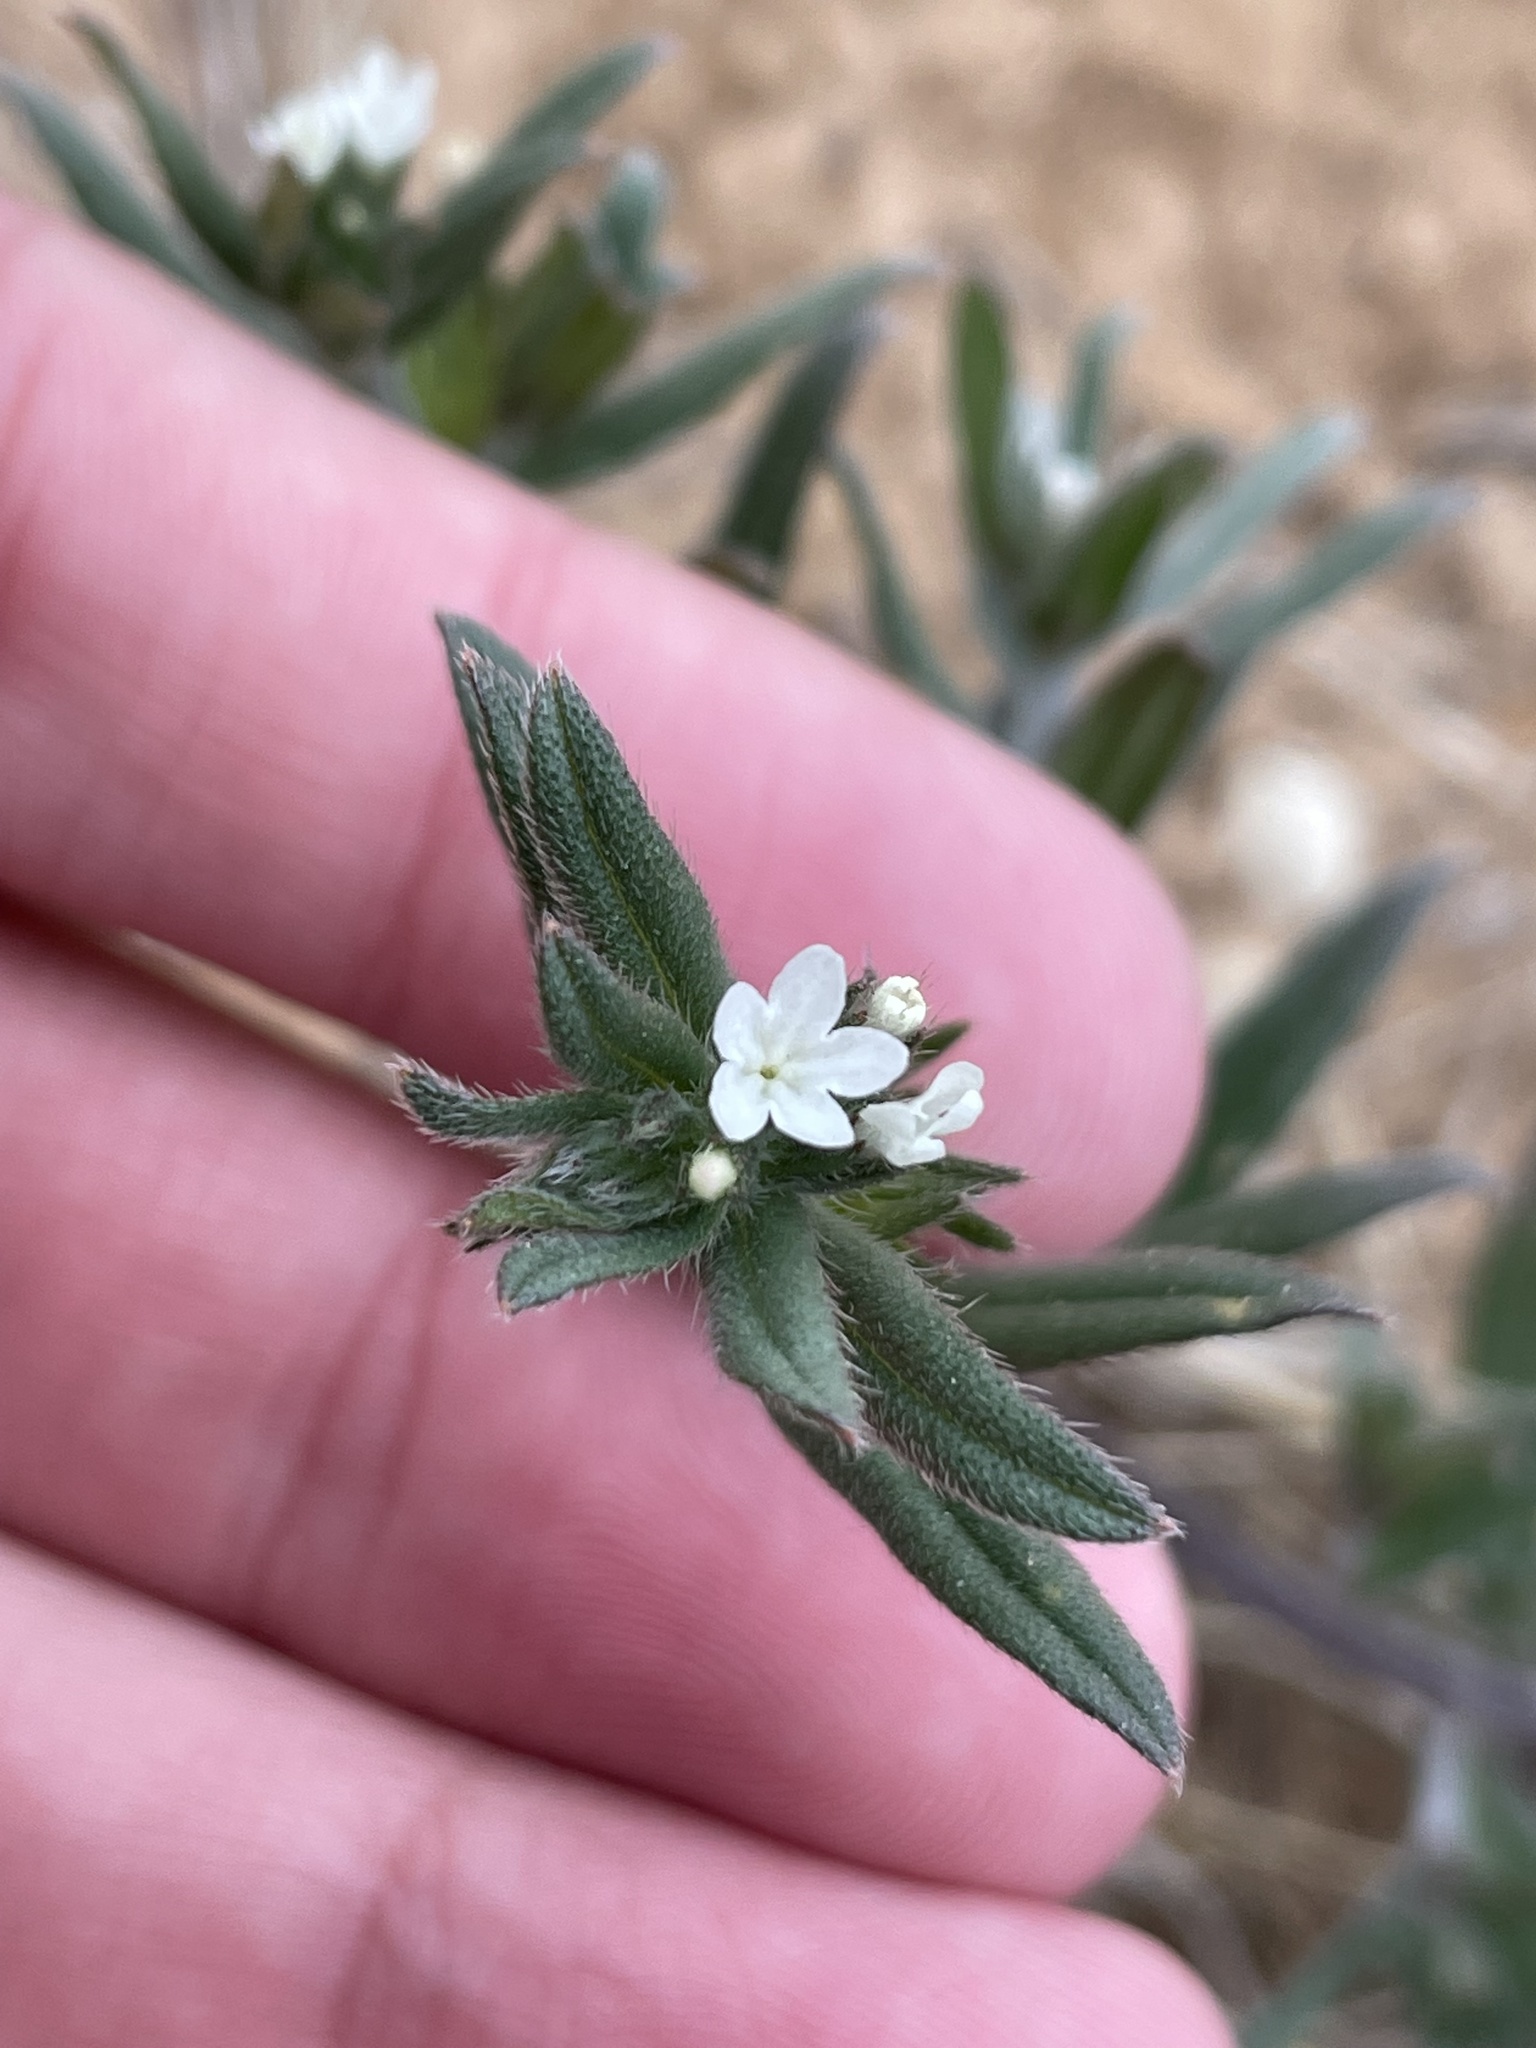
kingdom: Plantae
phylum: Tracheophyta
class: Magnoliopsida
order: Boraginales
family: Boraginaceae
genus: Buglossoides
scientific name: Buglossoides arvensis
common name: Corn gromwell
